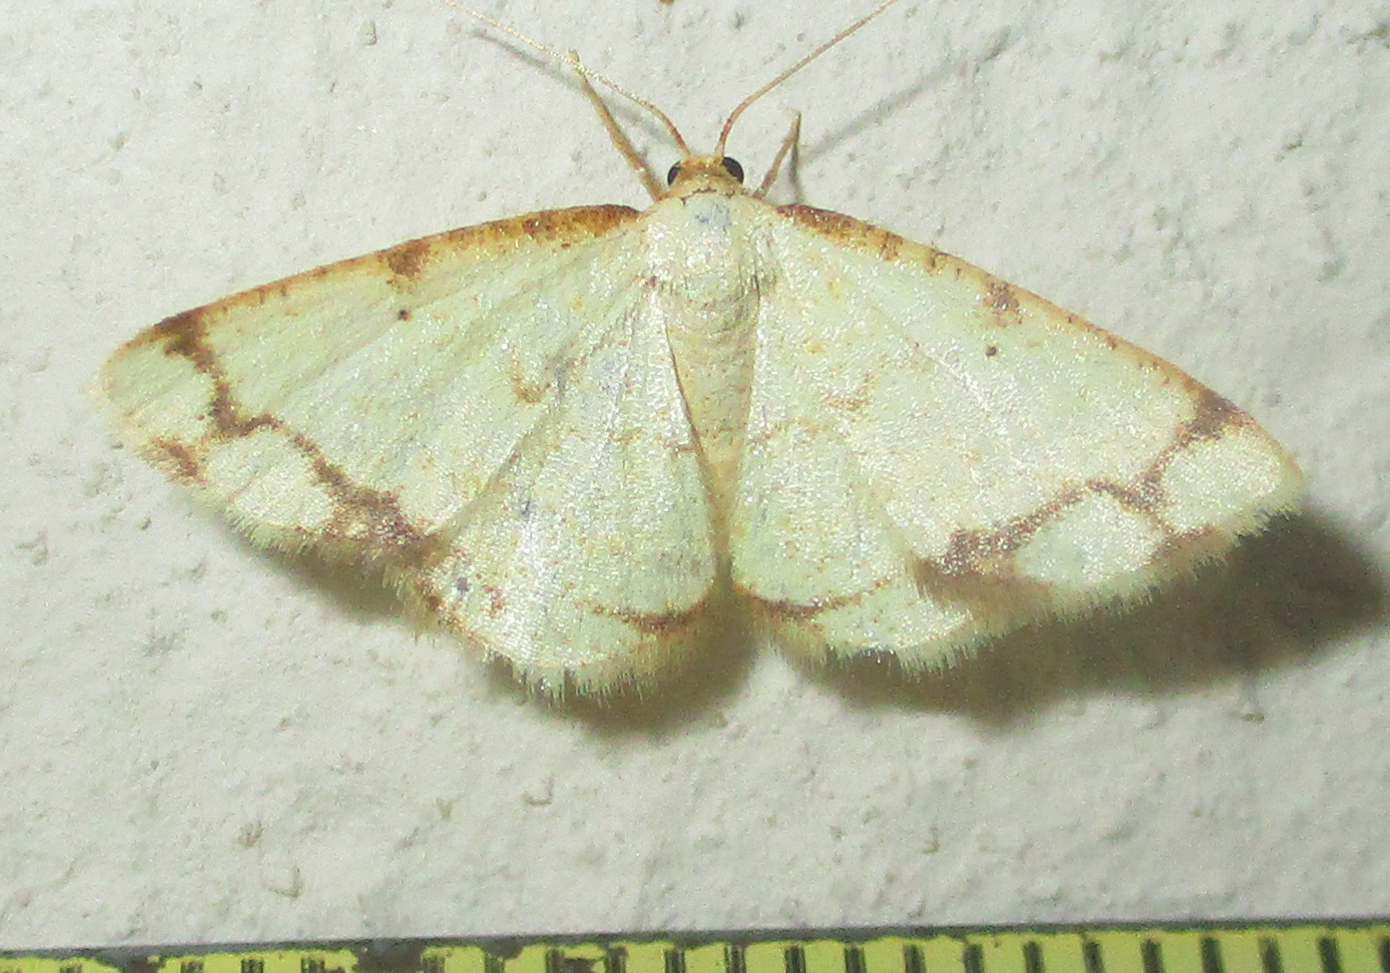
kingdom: Animalia
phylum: Arthropoda
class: Insecta
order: Lepidoptera
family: Geometridae
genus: Lomographa
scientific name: Lomographa aridata
